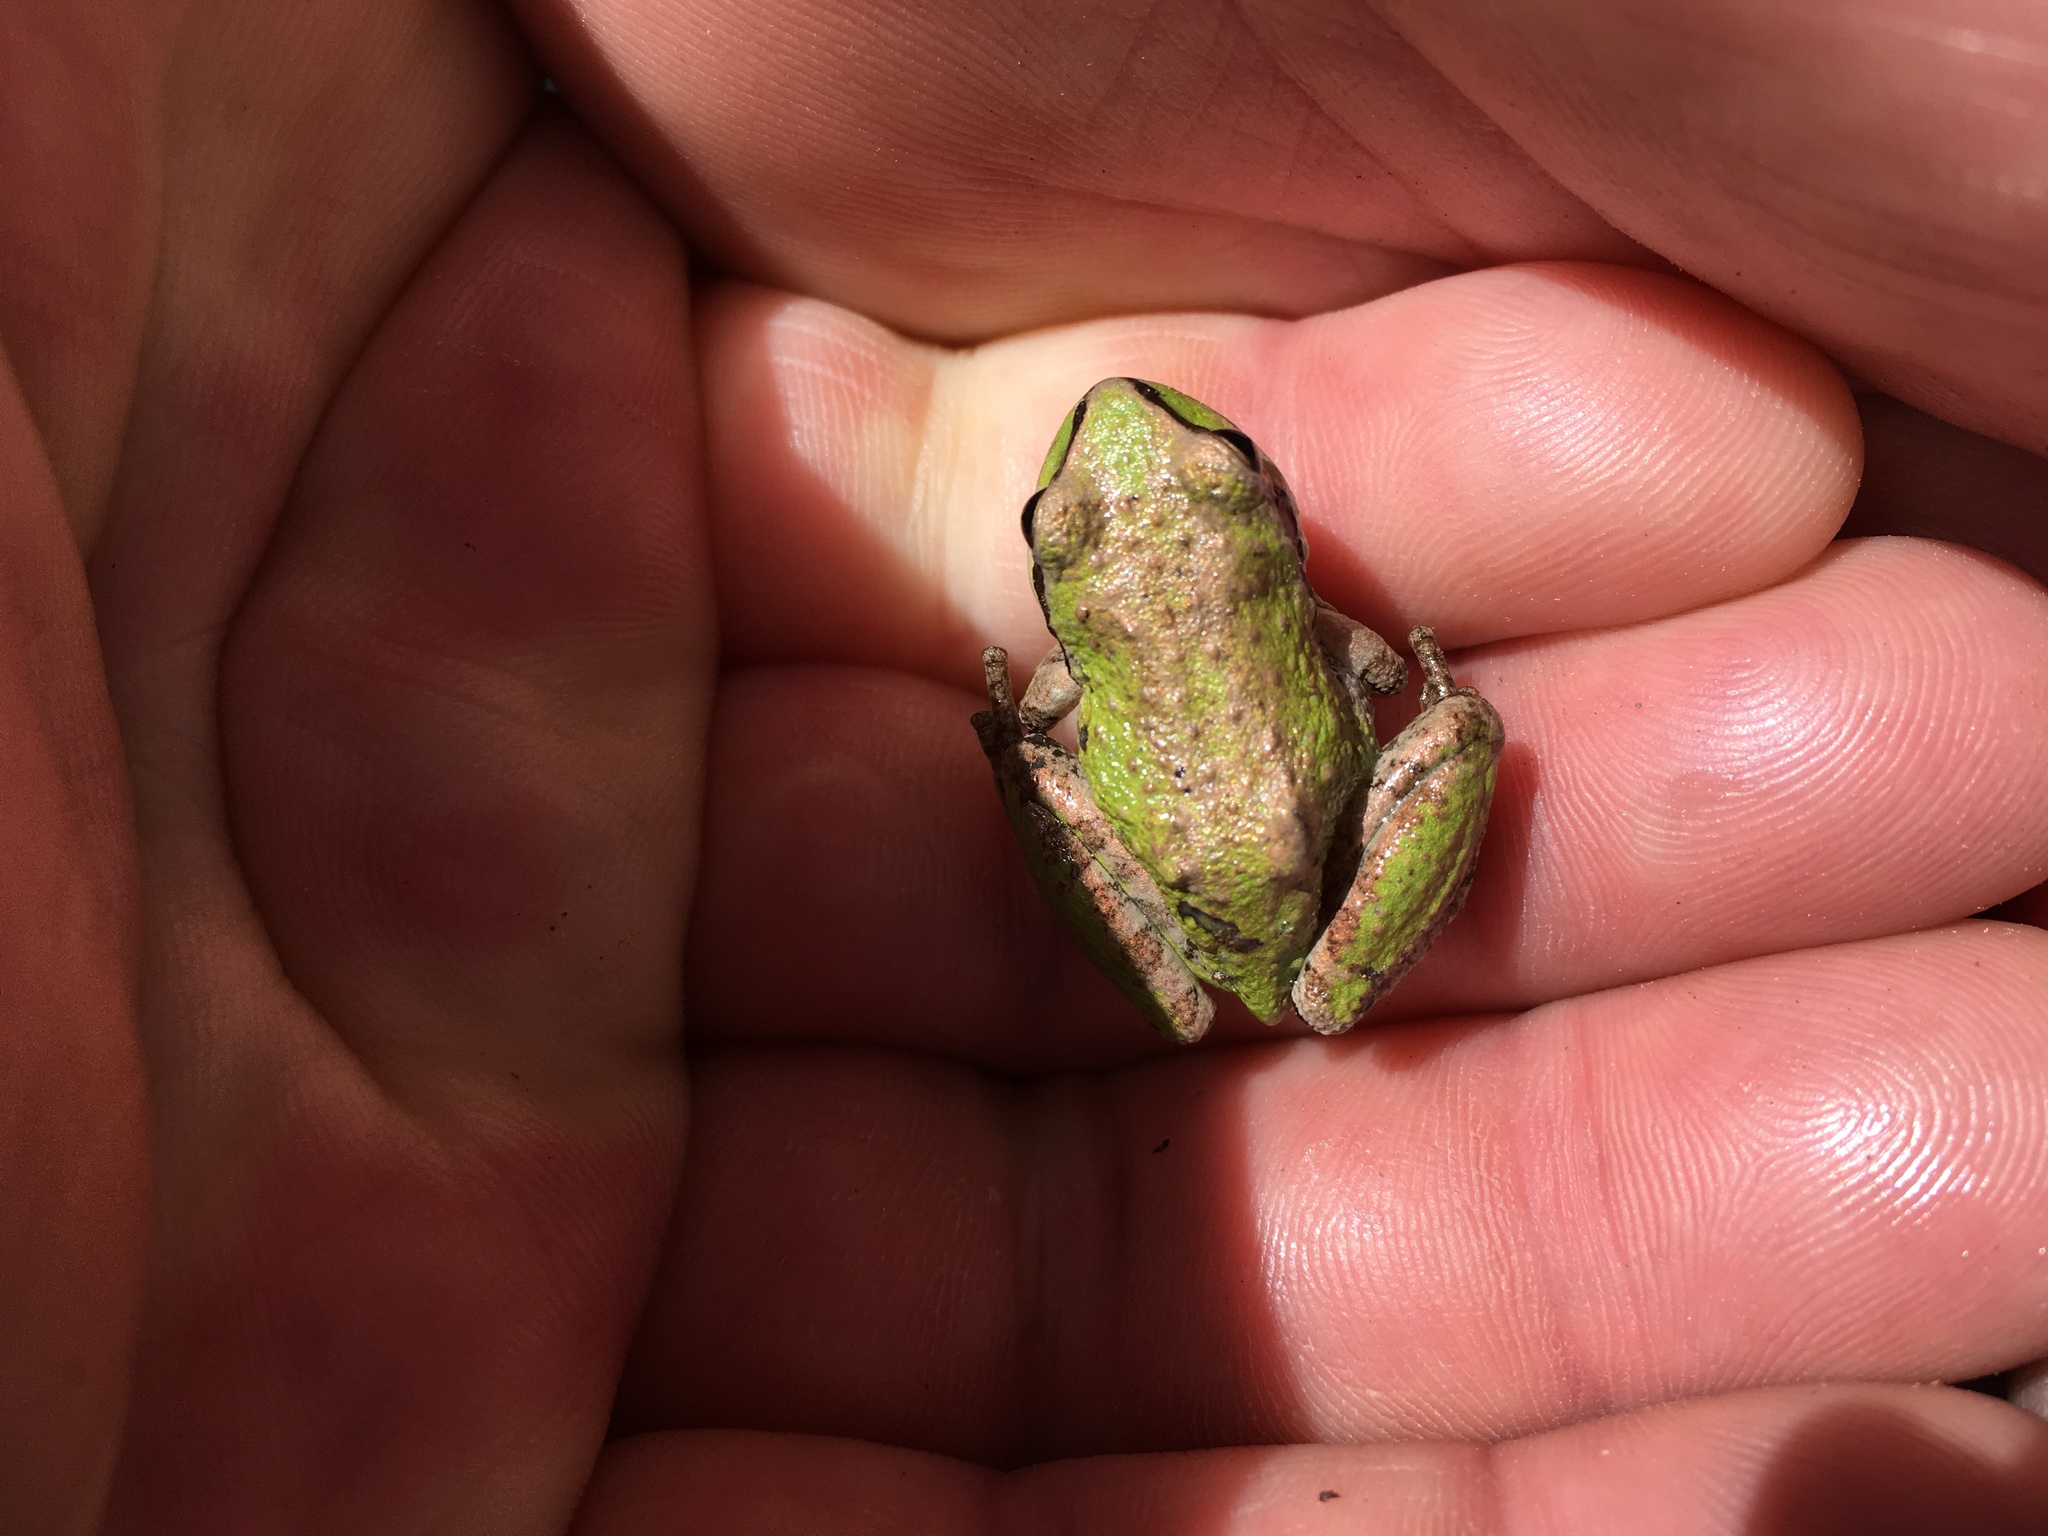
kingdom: Animalia
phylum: Chordata
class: Amphibia
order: Anura
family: Hylidae
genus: Pseudacris
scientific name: Pseudacris regilla
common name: Pacific chorus frog
